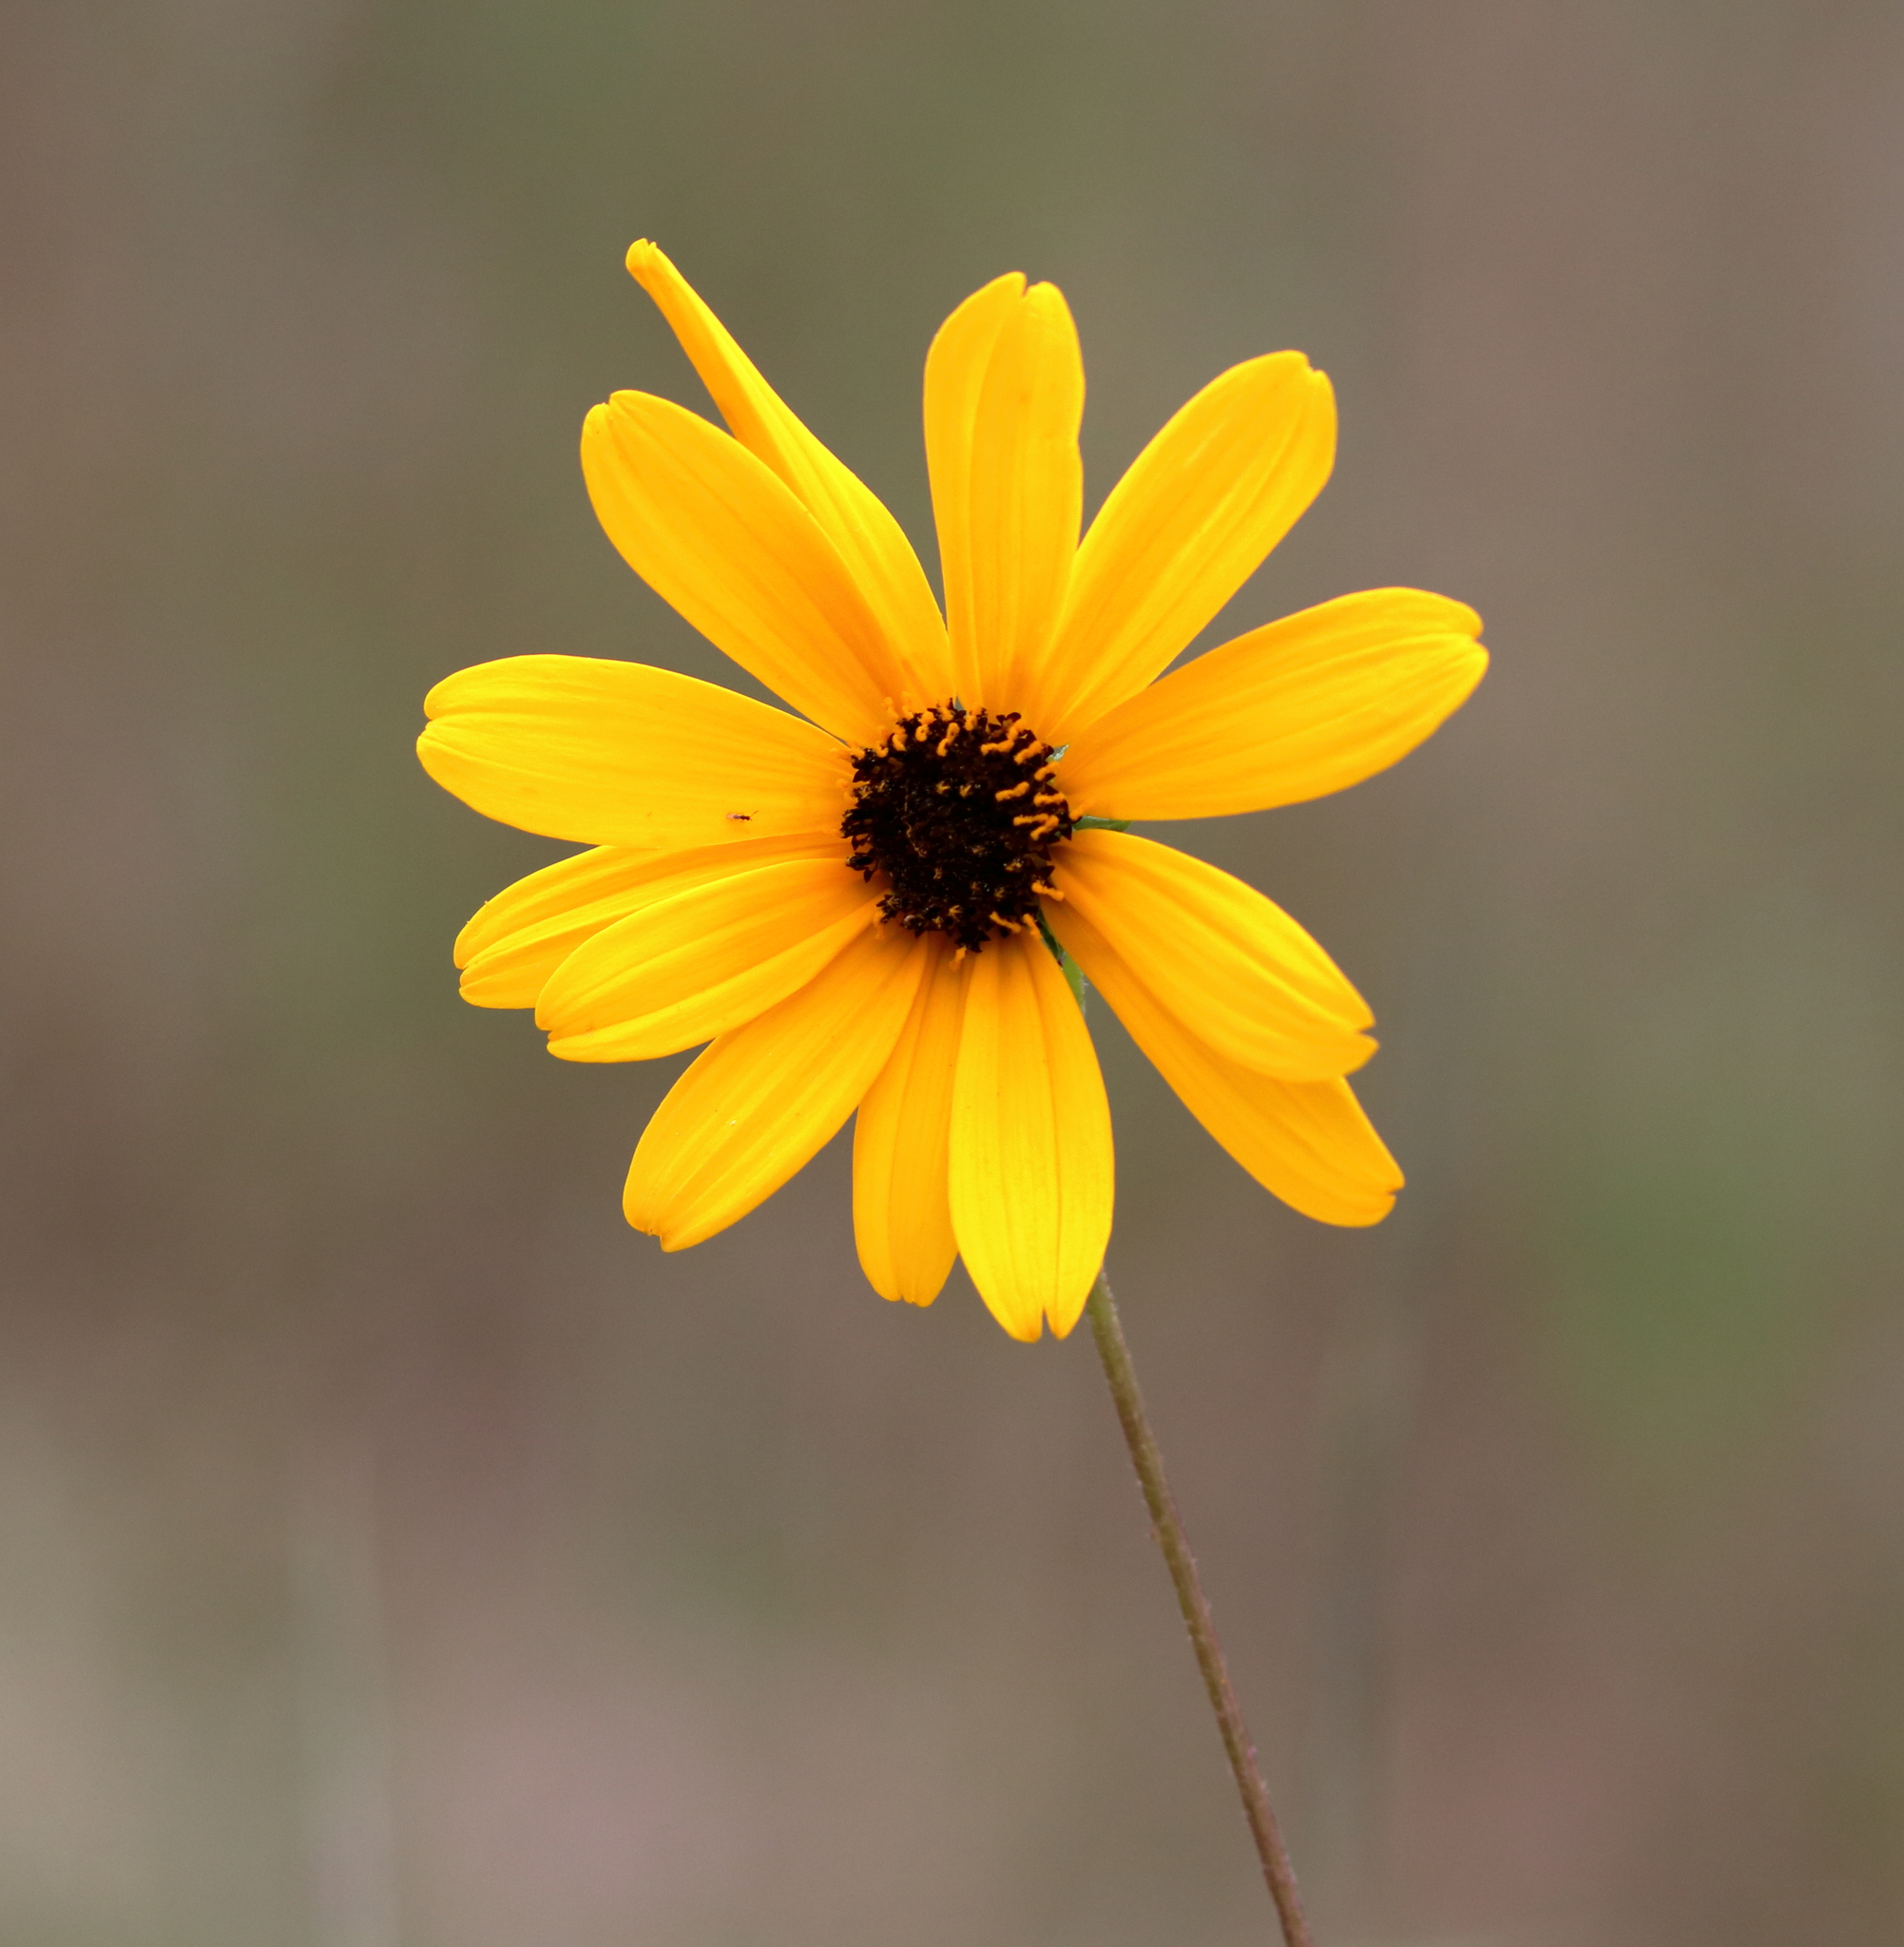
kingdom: Plantae
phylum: Tracheophyta
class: Magnoliopsida
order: Asterales
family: Asteraceae
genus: Helianthus
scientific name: Helianthus angustifolius
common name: Swamp sunflower
